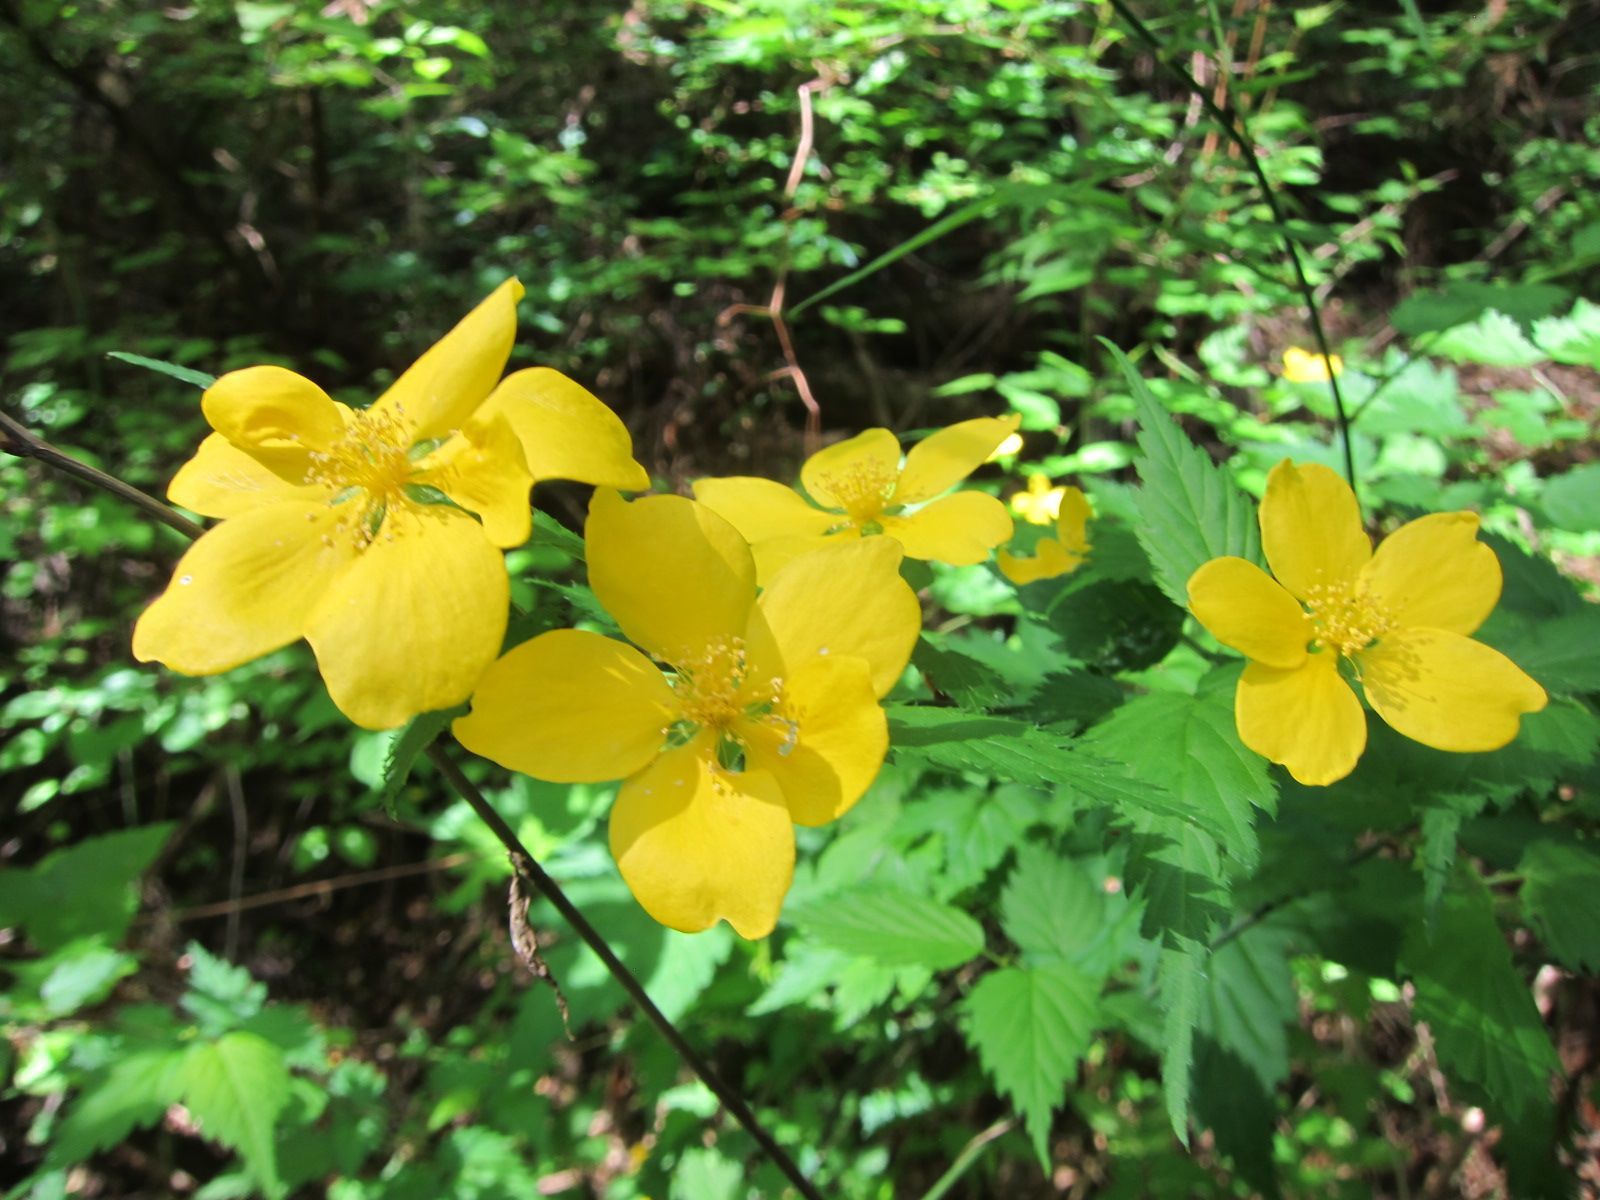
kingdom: Plantae
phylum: Tracheophyta
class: Magnoliopsida
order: Rosales
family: Rosaceae
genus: Kerria
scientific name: Kerria japonica
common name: Japanese kerria
